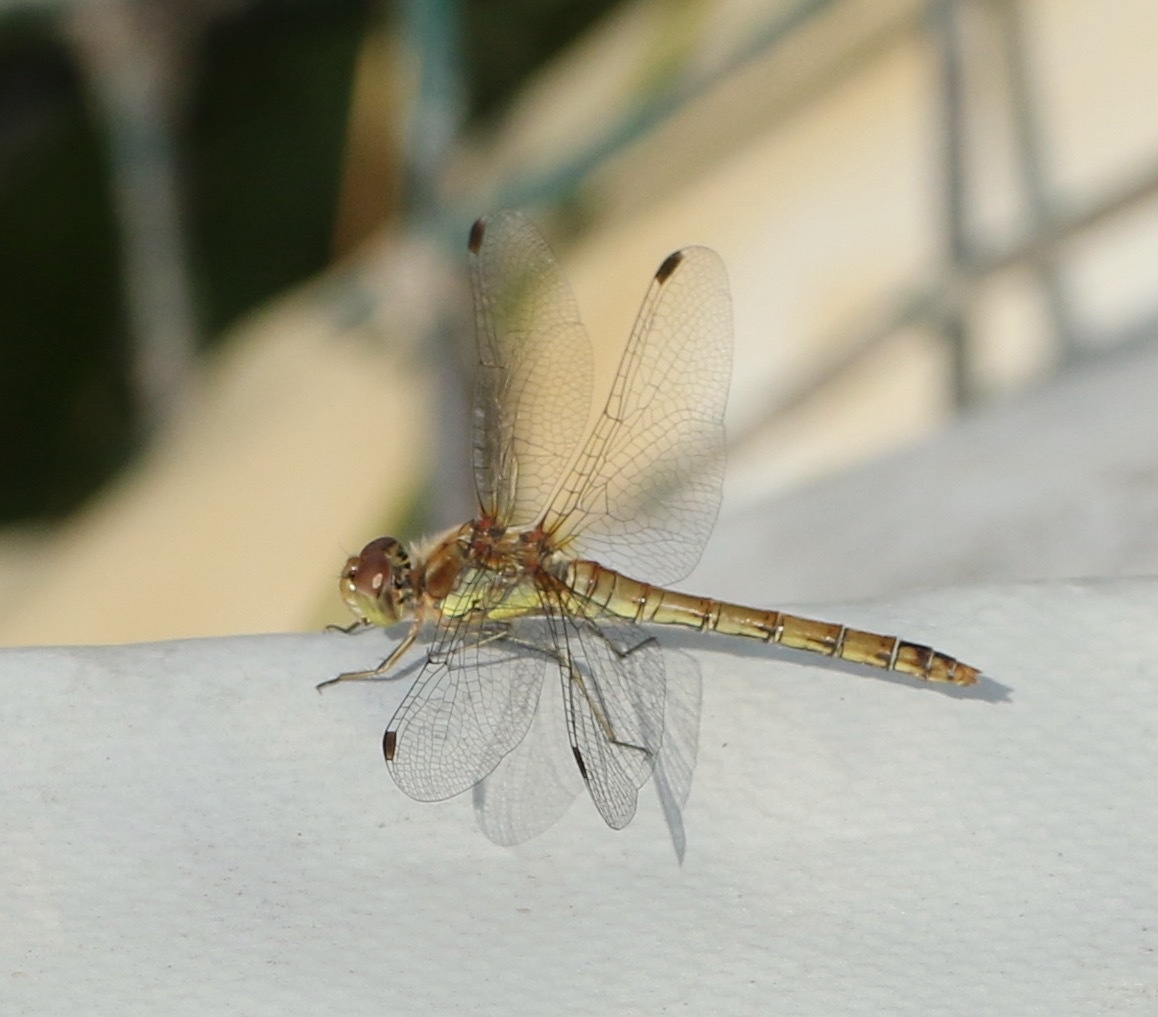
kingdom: Animalia
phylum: Arthropoda
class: Insecta
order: Odonata
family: Libellulidae
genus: Sympetrum
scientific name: Sympetrum striolatum
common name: Common darter
